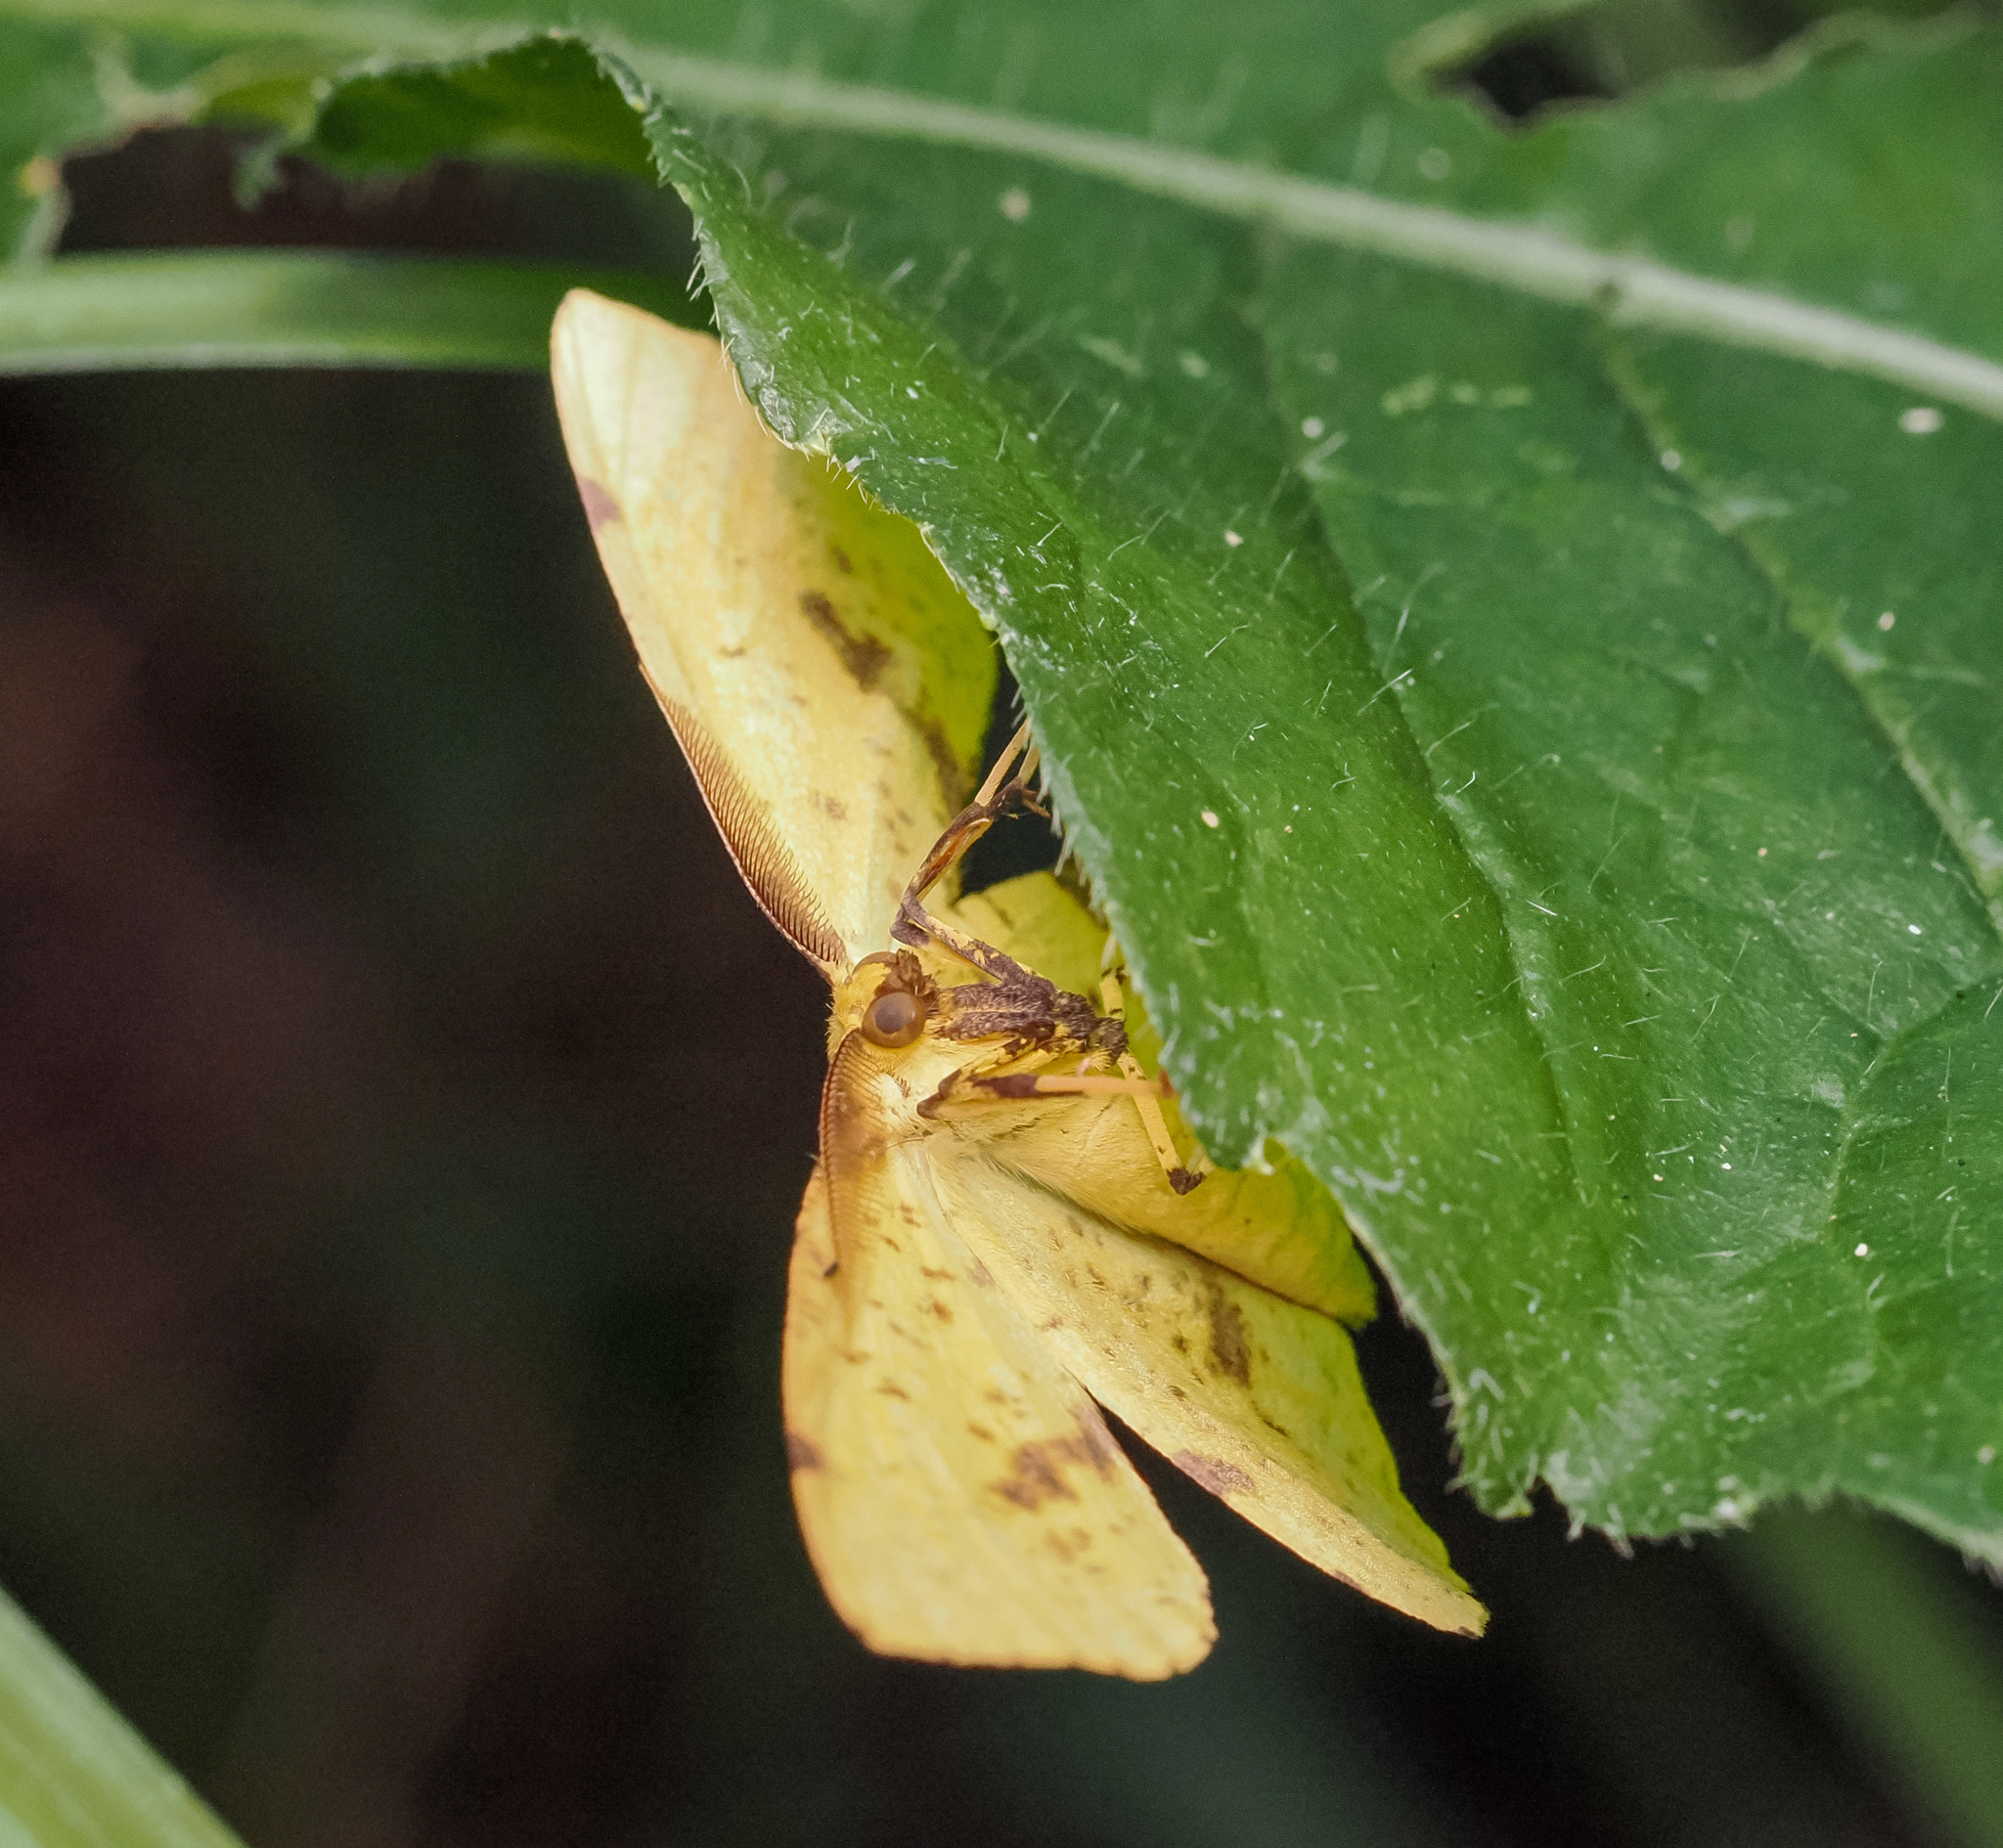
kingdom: Animalia
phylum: Arthropoda
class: Insecta
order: Lepidoptera
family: Geometridae
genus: Xanthotype
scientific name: Xanthotype
